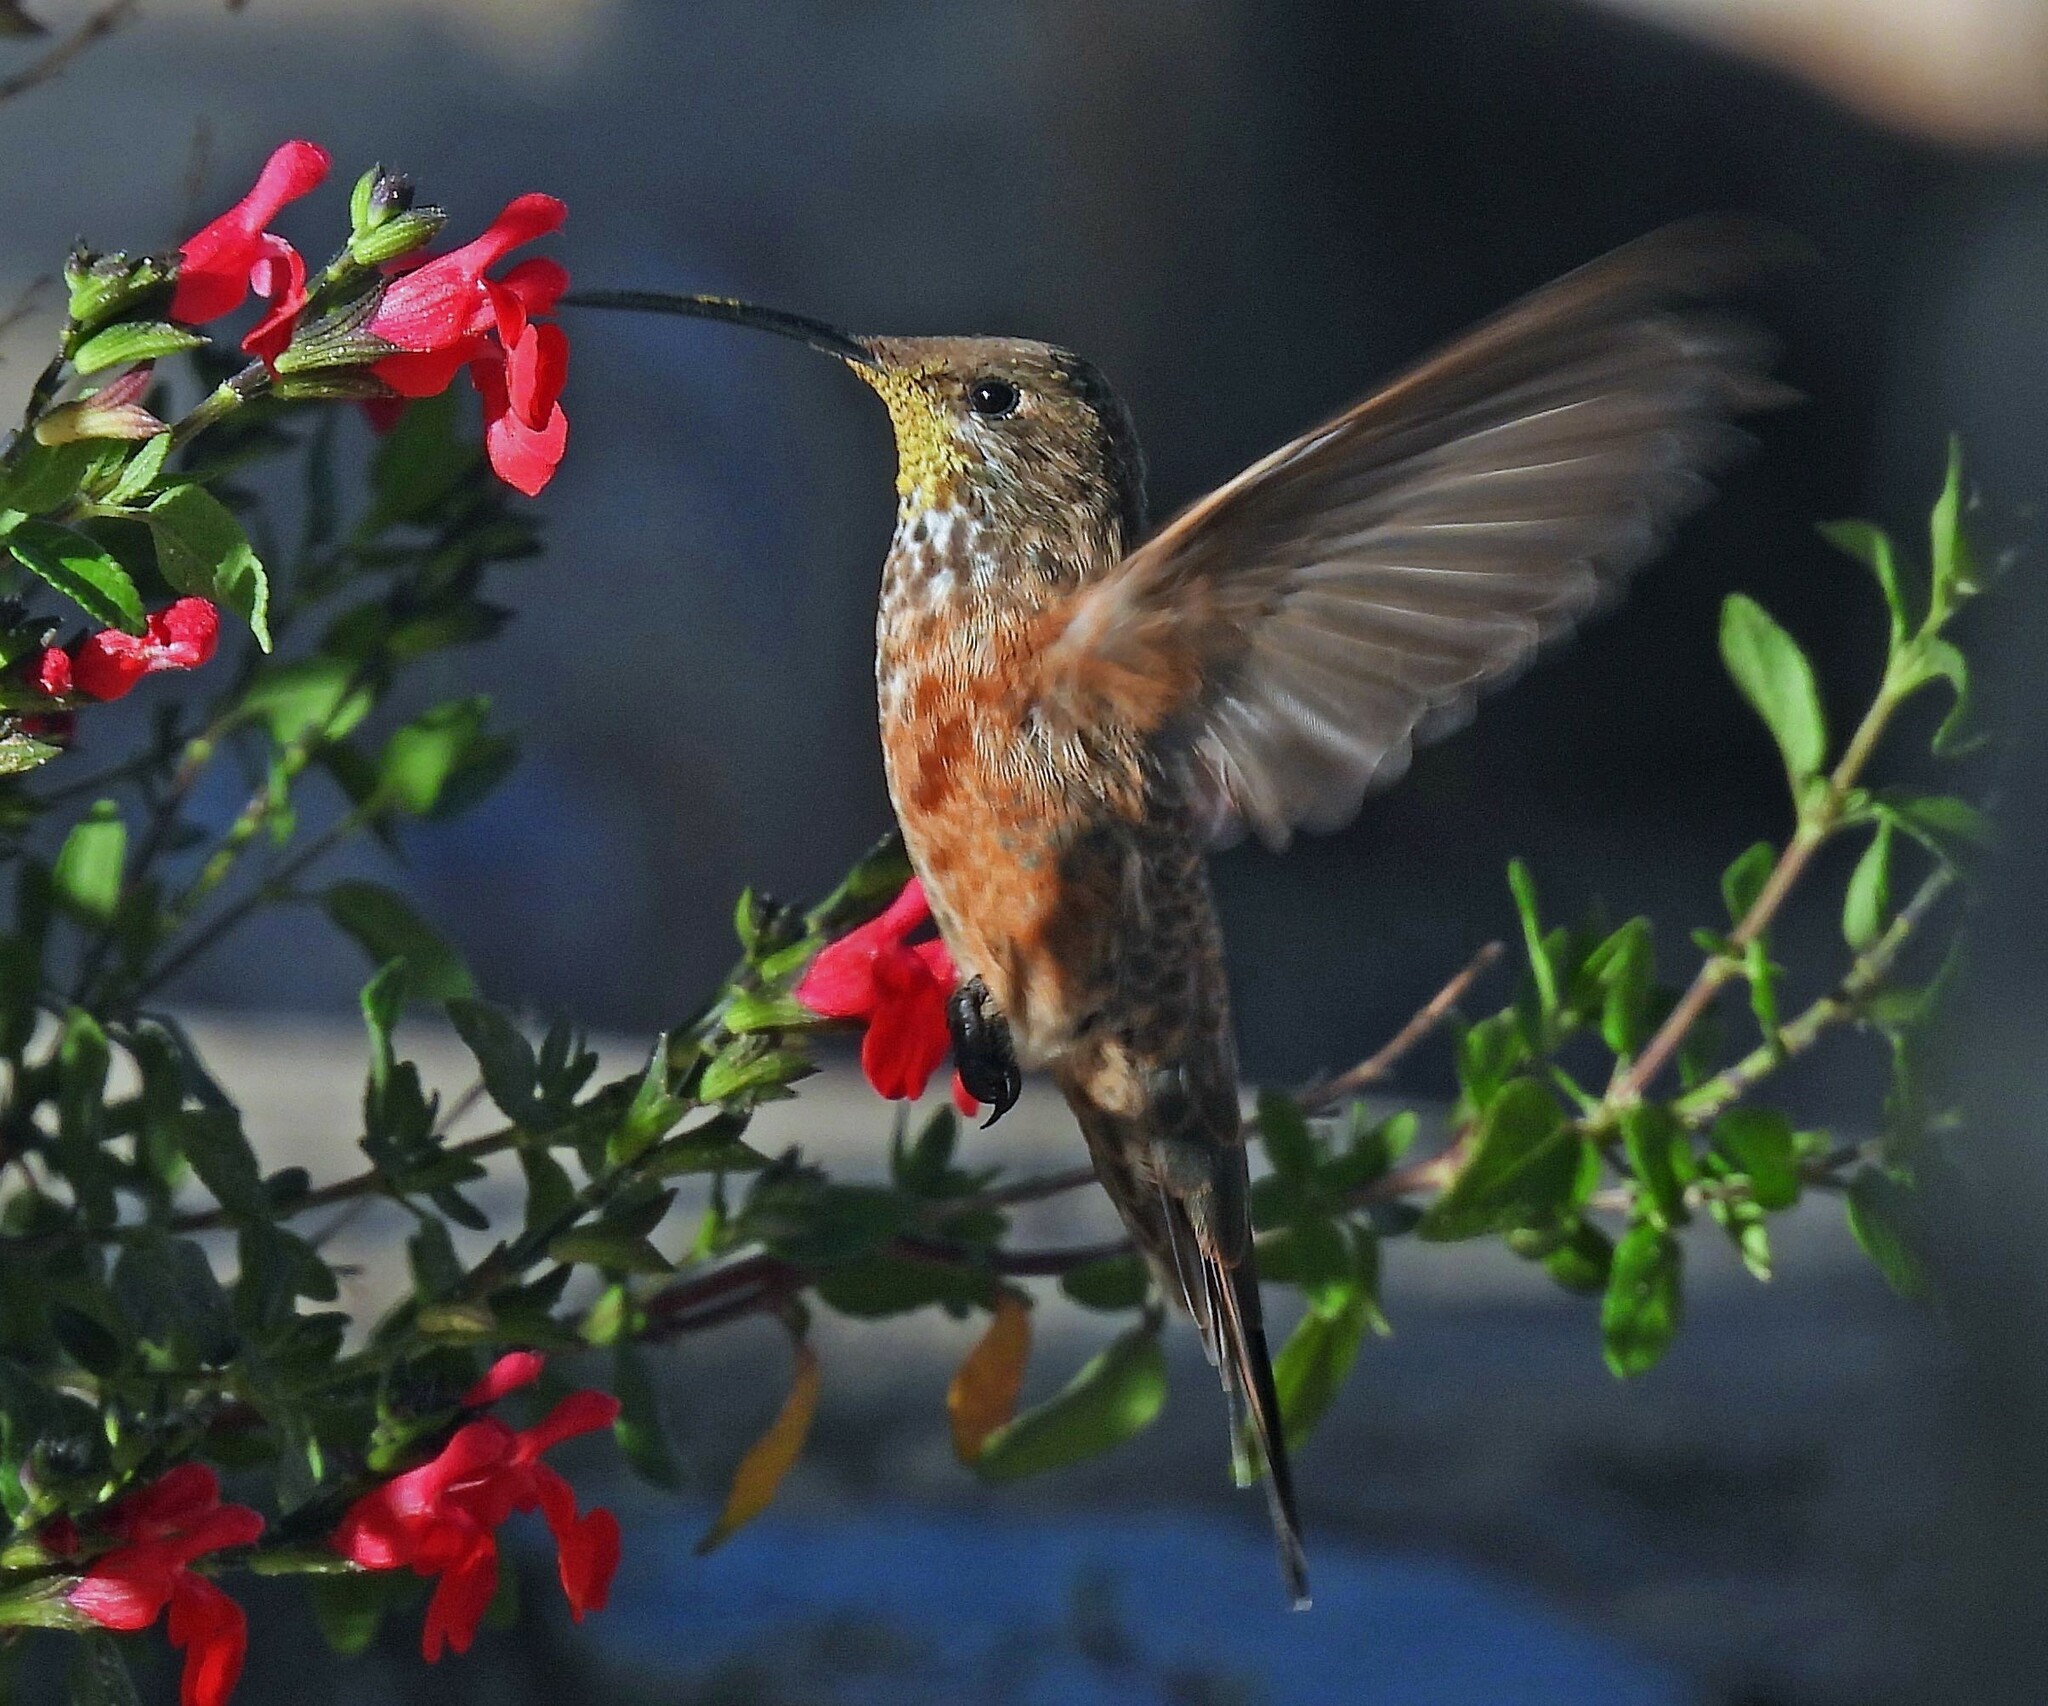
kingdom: Animalia
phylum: Chordata
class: Aves
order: Apodiformes
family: Trochilidae
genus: Oreotrochilus
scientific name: Oreotrochilus adela
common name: Wedge-tailed hillstar
